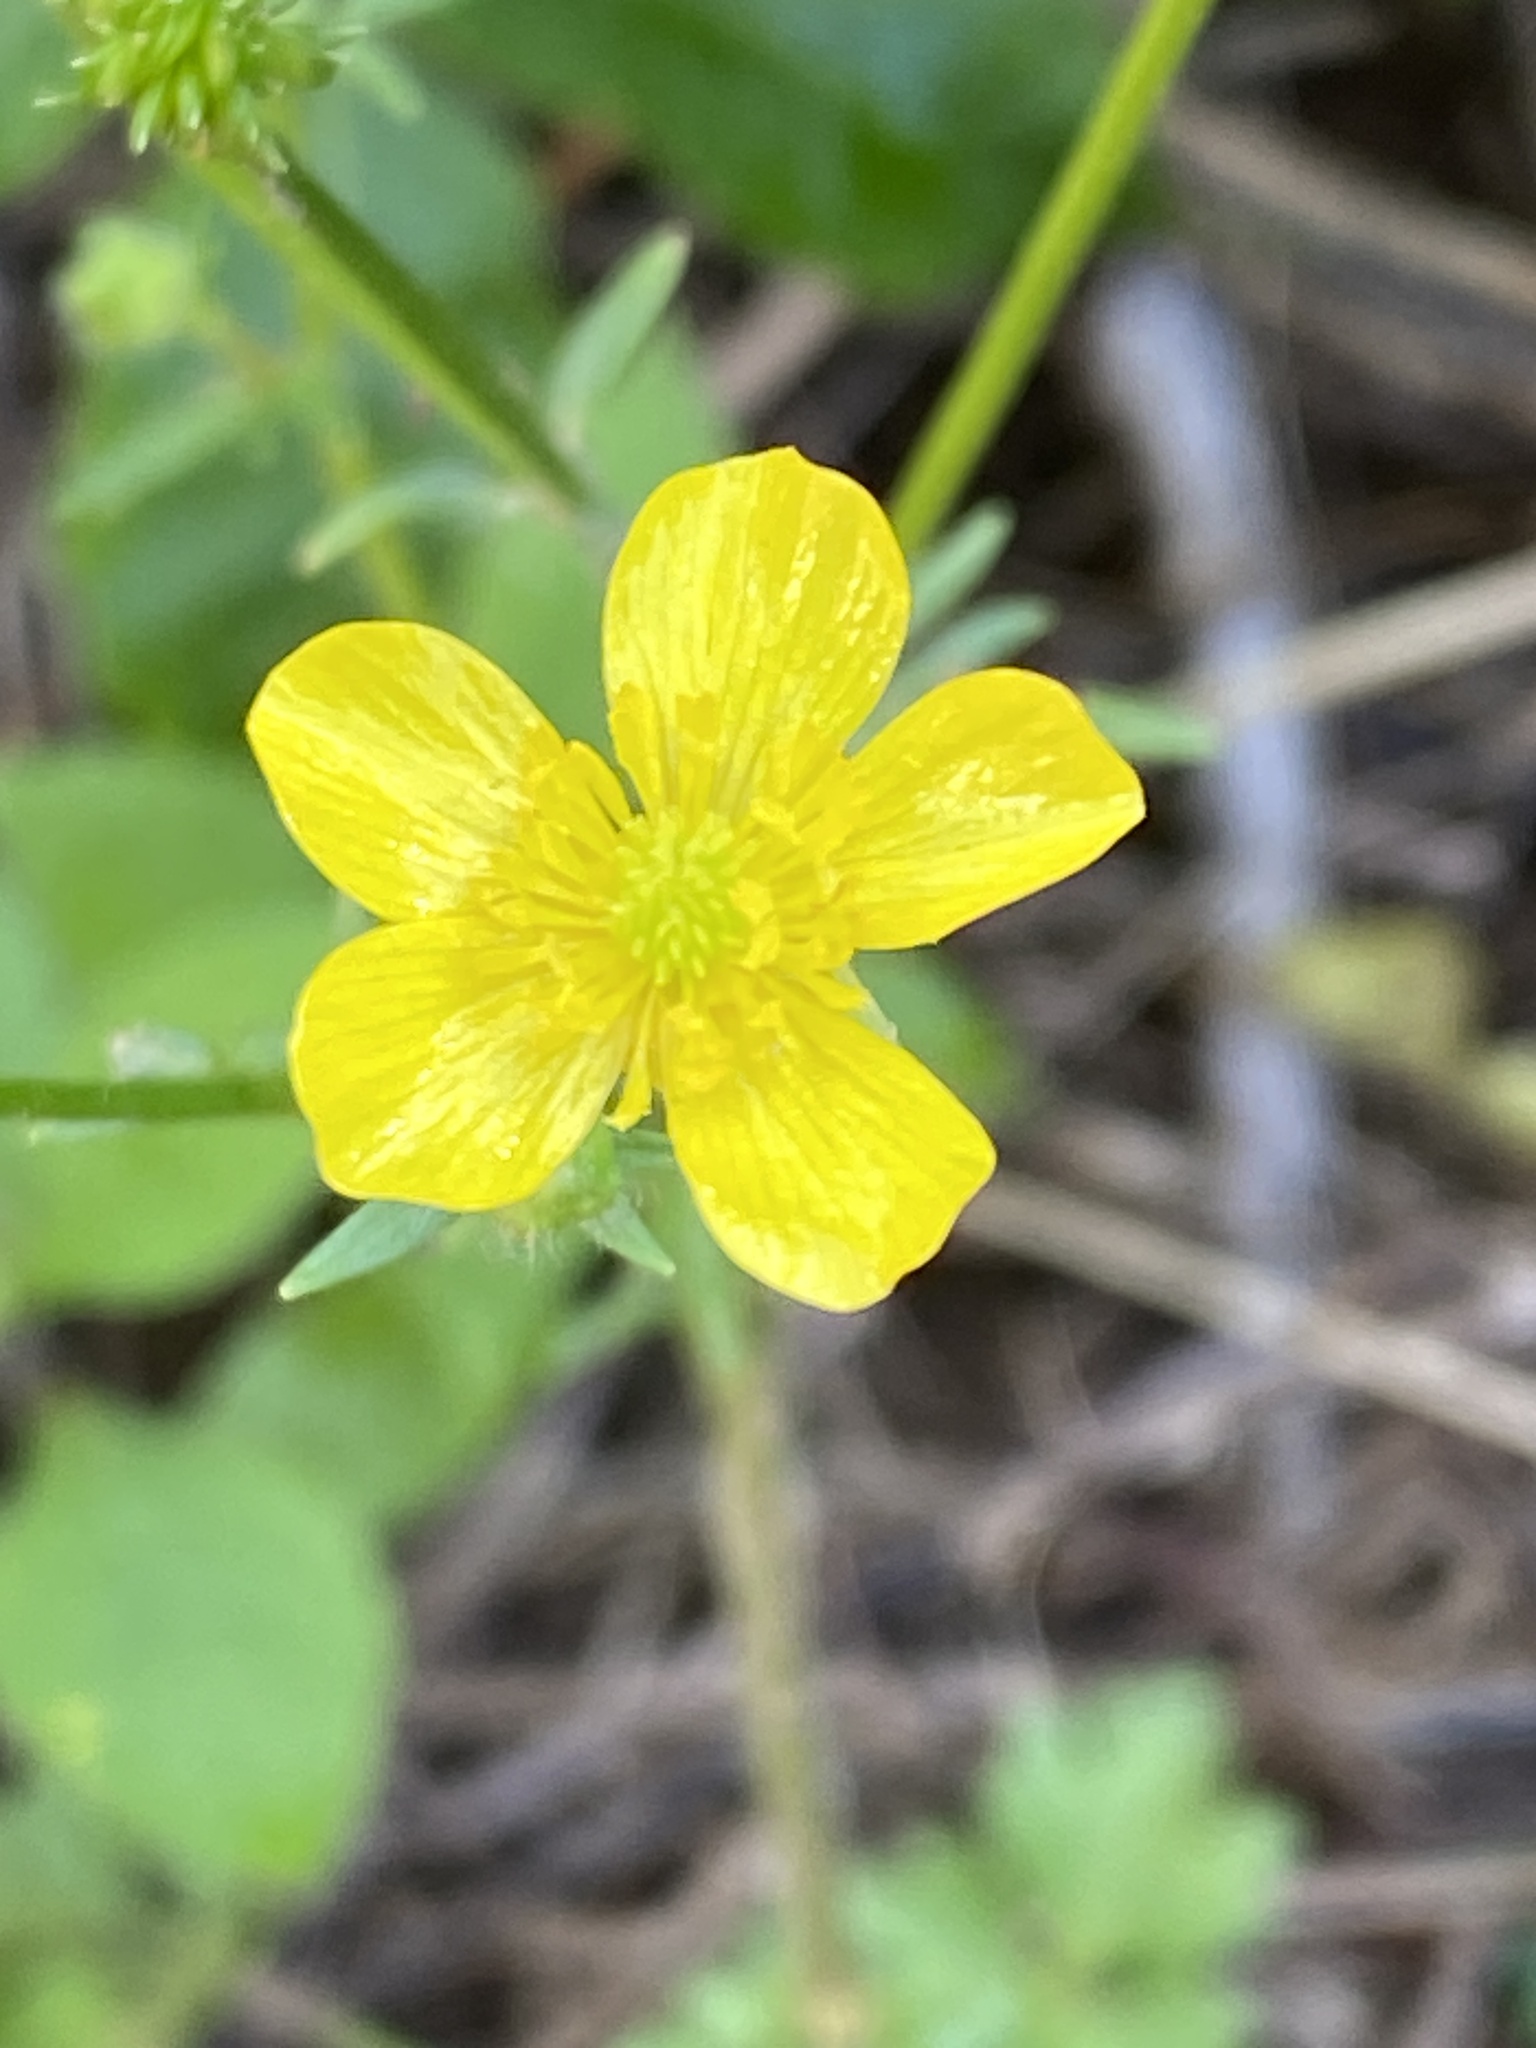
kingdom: Plantae
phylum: Tracheophyta
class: Magnoliopsida
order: Ranunculales
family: Ranunculaceae
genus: Ranunculus
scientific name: Ranunculus bulbosus
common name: Bulbous buttercup
